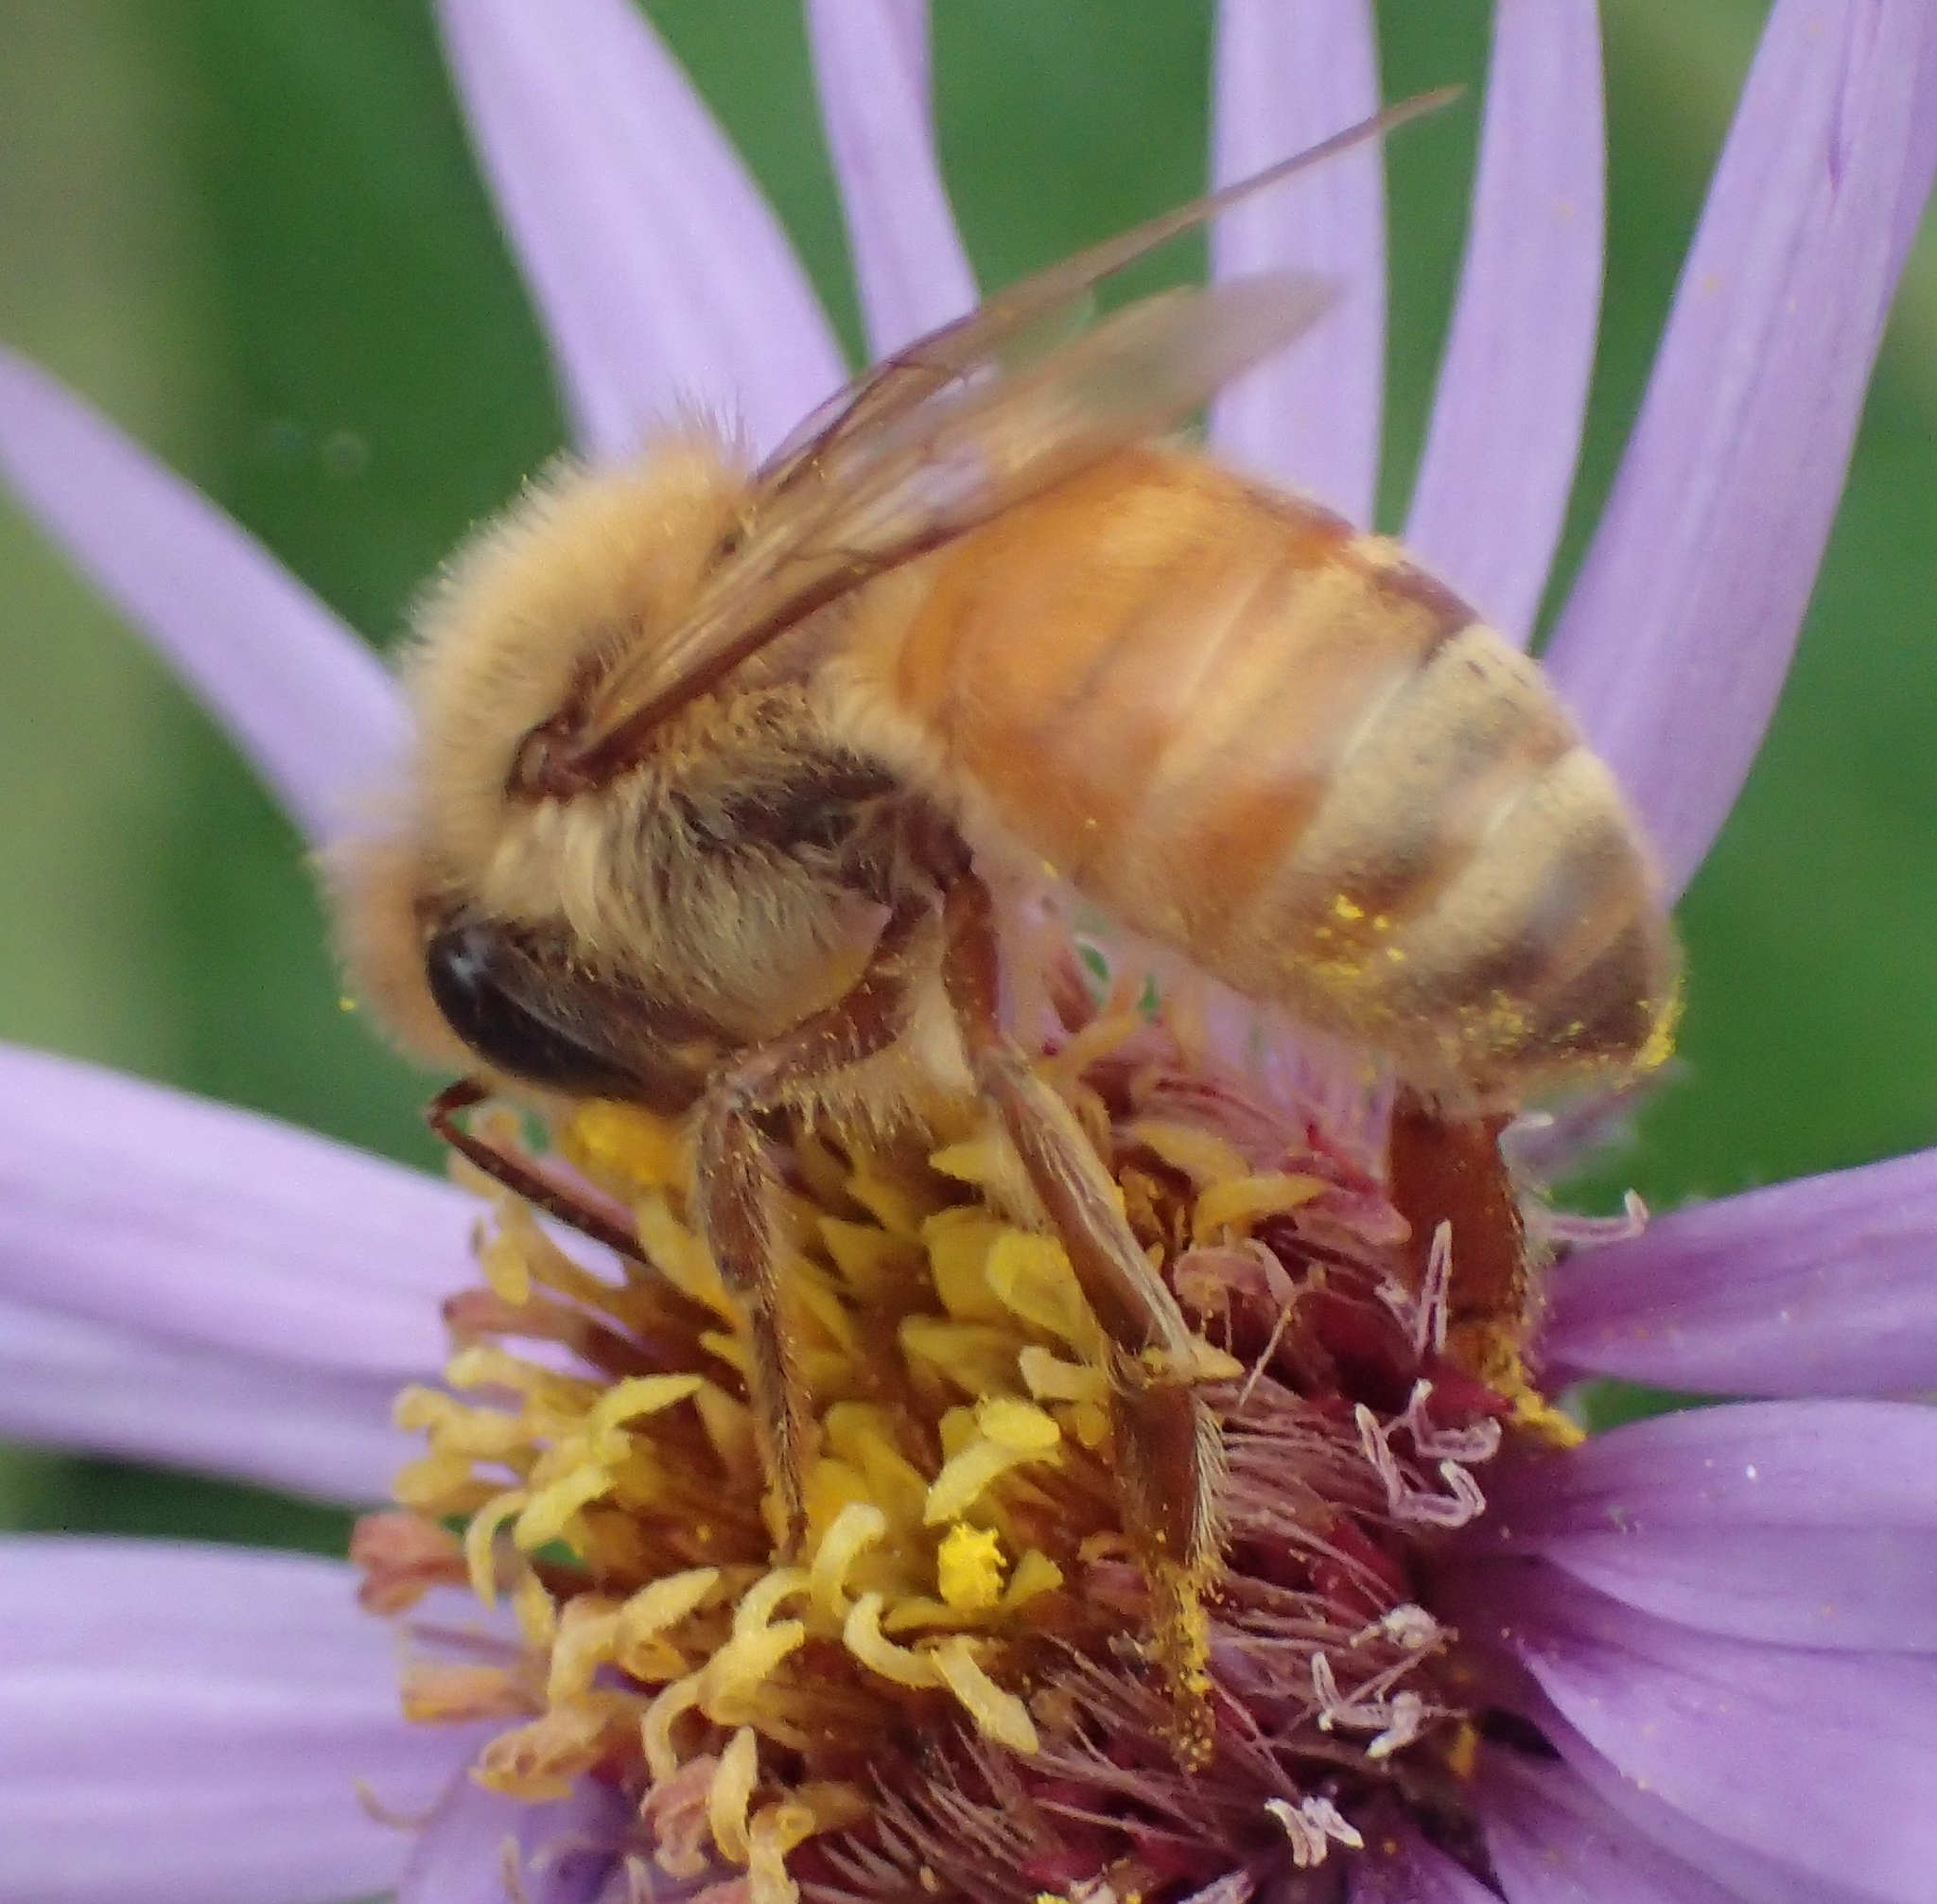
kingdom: Animalia
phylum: Arthropoda
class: Insecta
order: Hymenoptera
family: Apidae
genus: Apis
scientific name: Apis mellifera
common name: Honey bee
